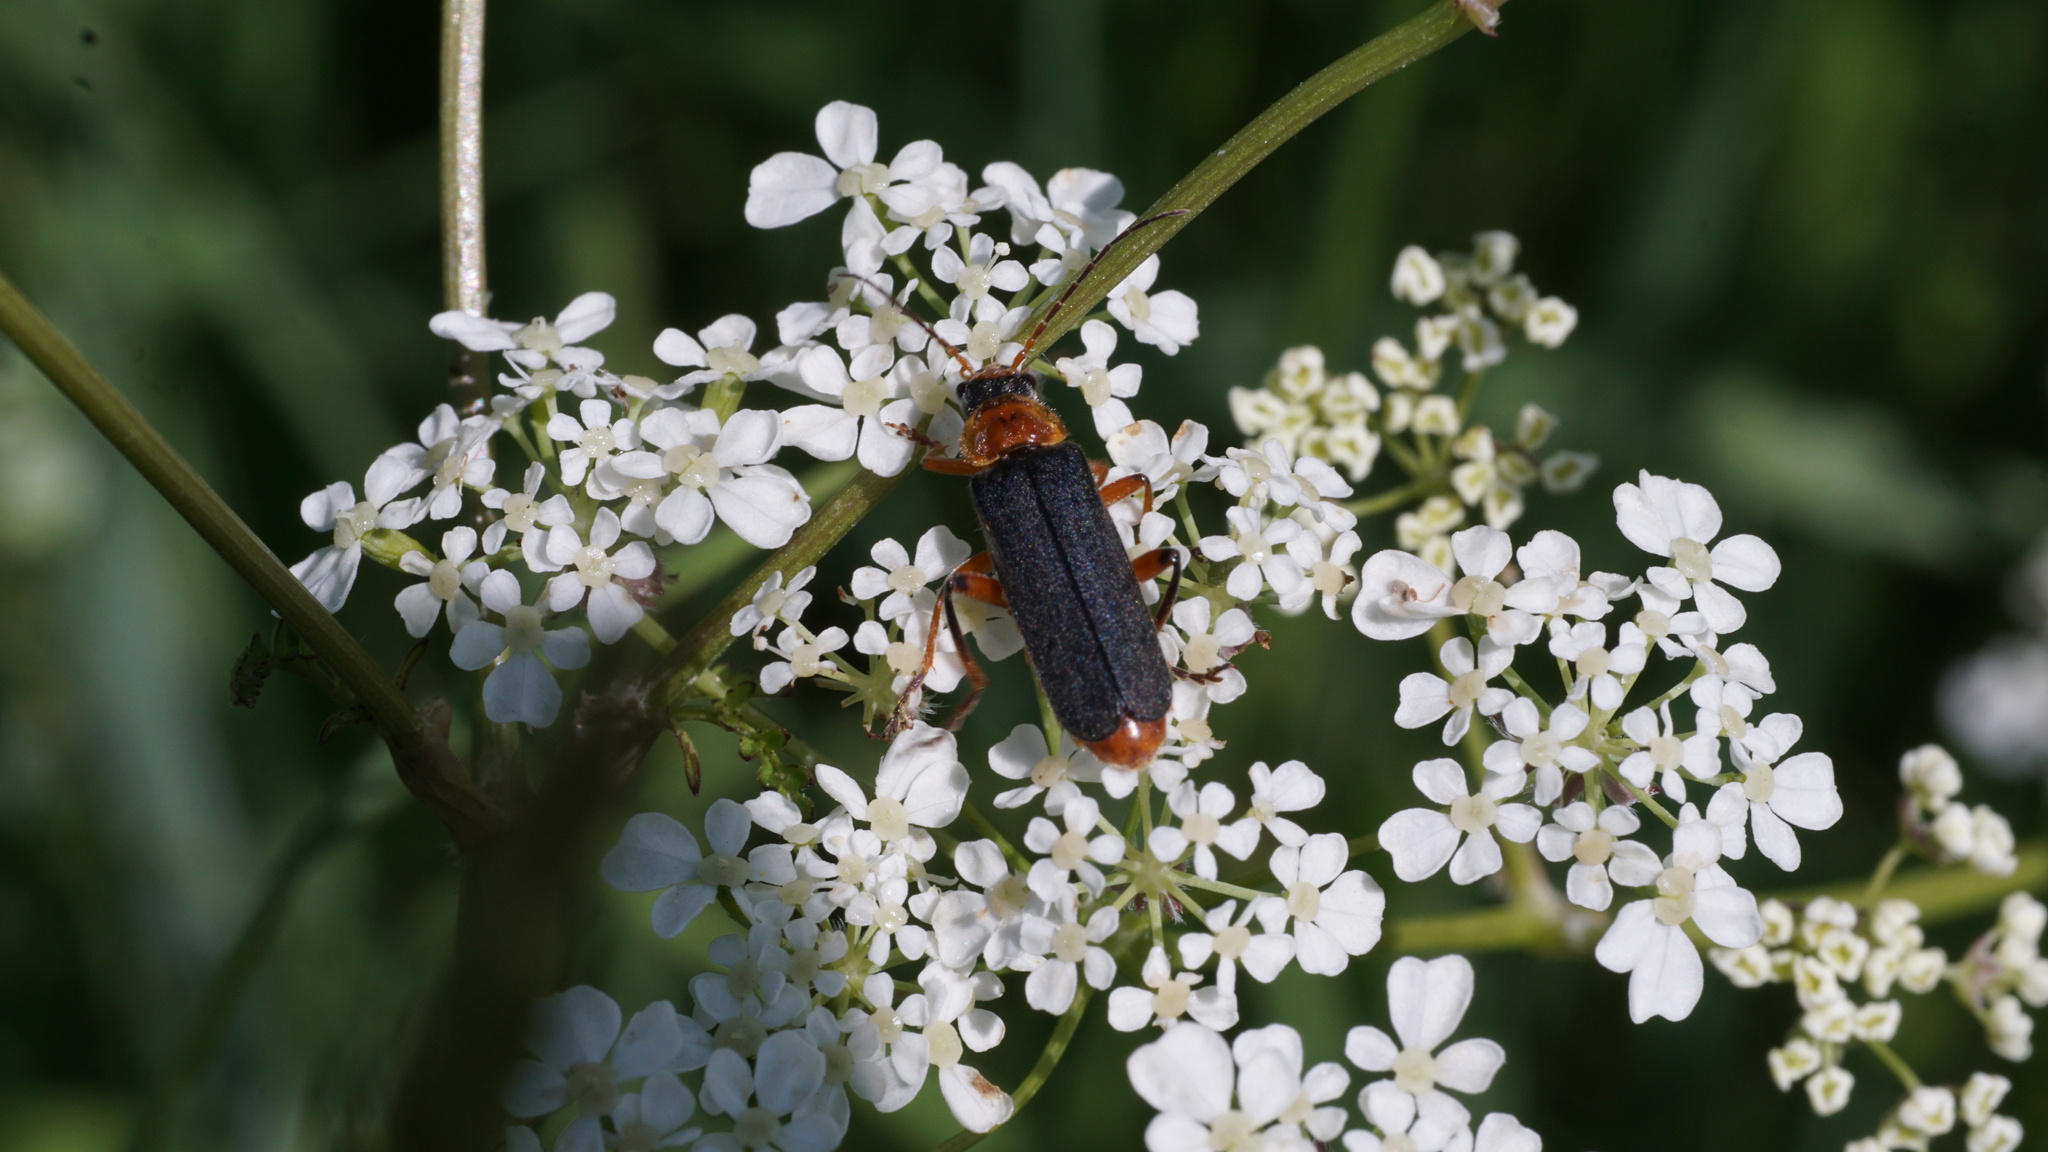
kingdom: Animalia
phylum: Arthropoda
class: Insecta
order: Coleoptera
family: Cantharidae
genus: Cantharis
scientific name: Cantharis nigricans
